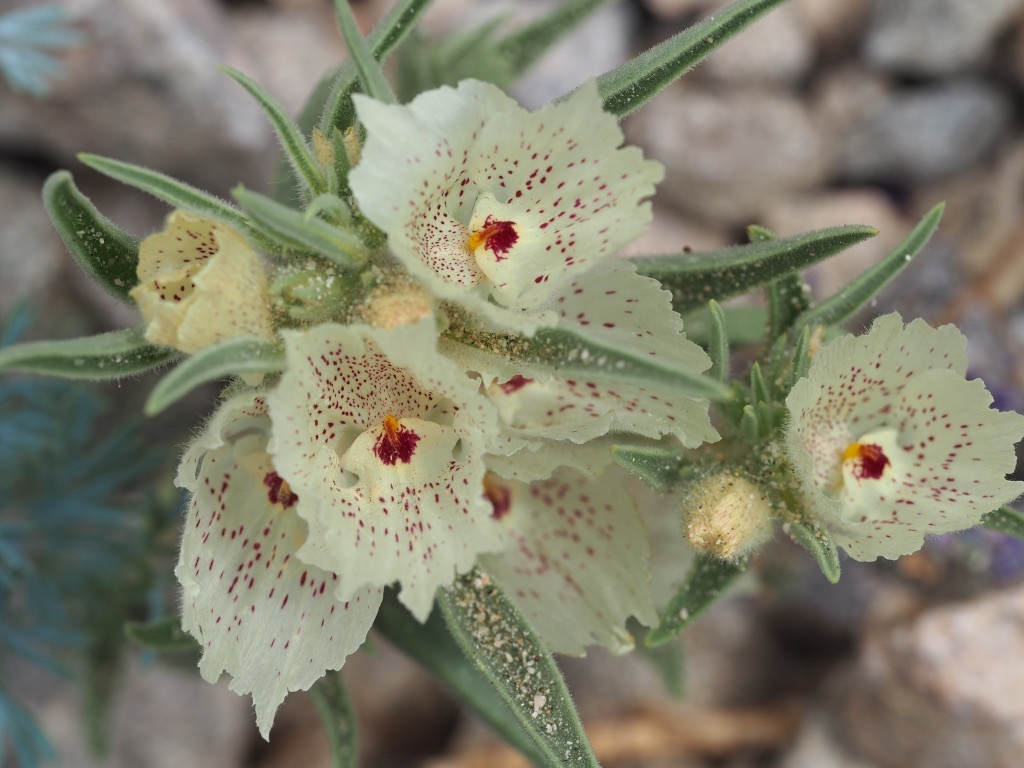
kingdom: Plantae
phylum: Tracheophyta
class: Magnoliopsida
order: Lamiales
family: Plantaginaceae
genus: Mohavea
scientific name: Mohavea confertiflora
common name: Ghost flower
